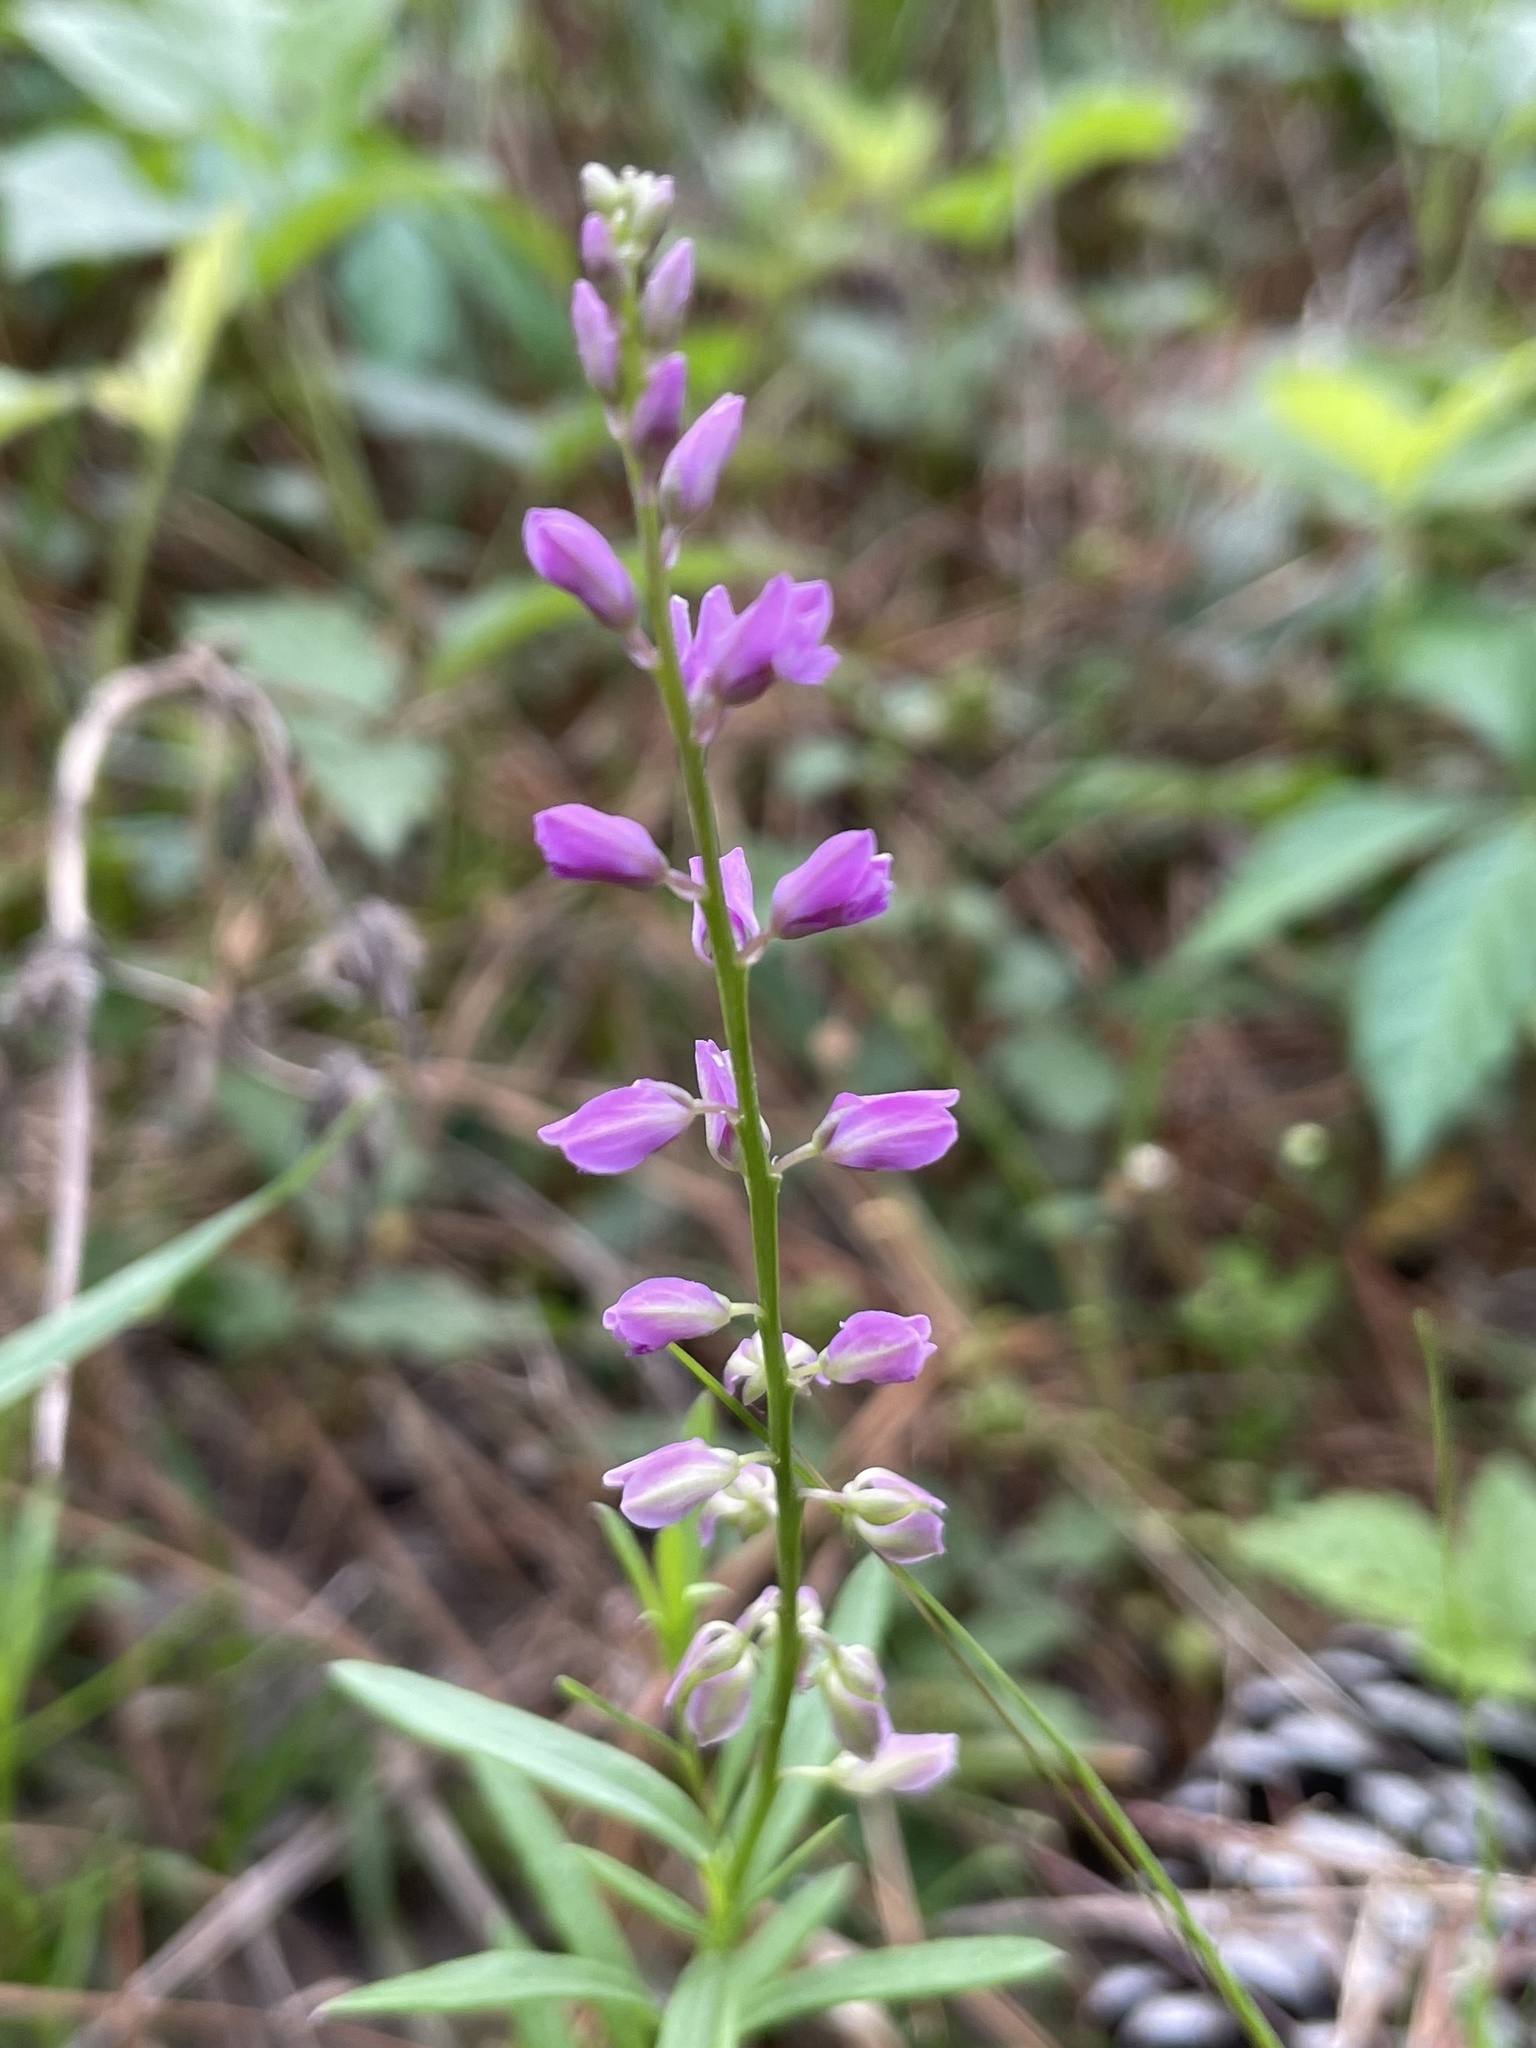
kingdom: Plantae
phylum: Tracheophyta
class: Magnoliopsida
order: Fabales
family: Polygalaceae
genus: Polygala
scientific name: Polygala polygama
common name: Bitter milkwort
